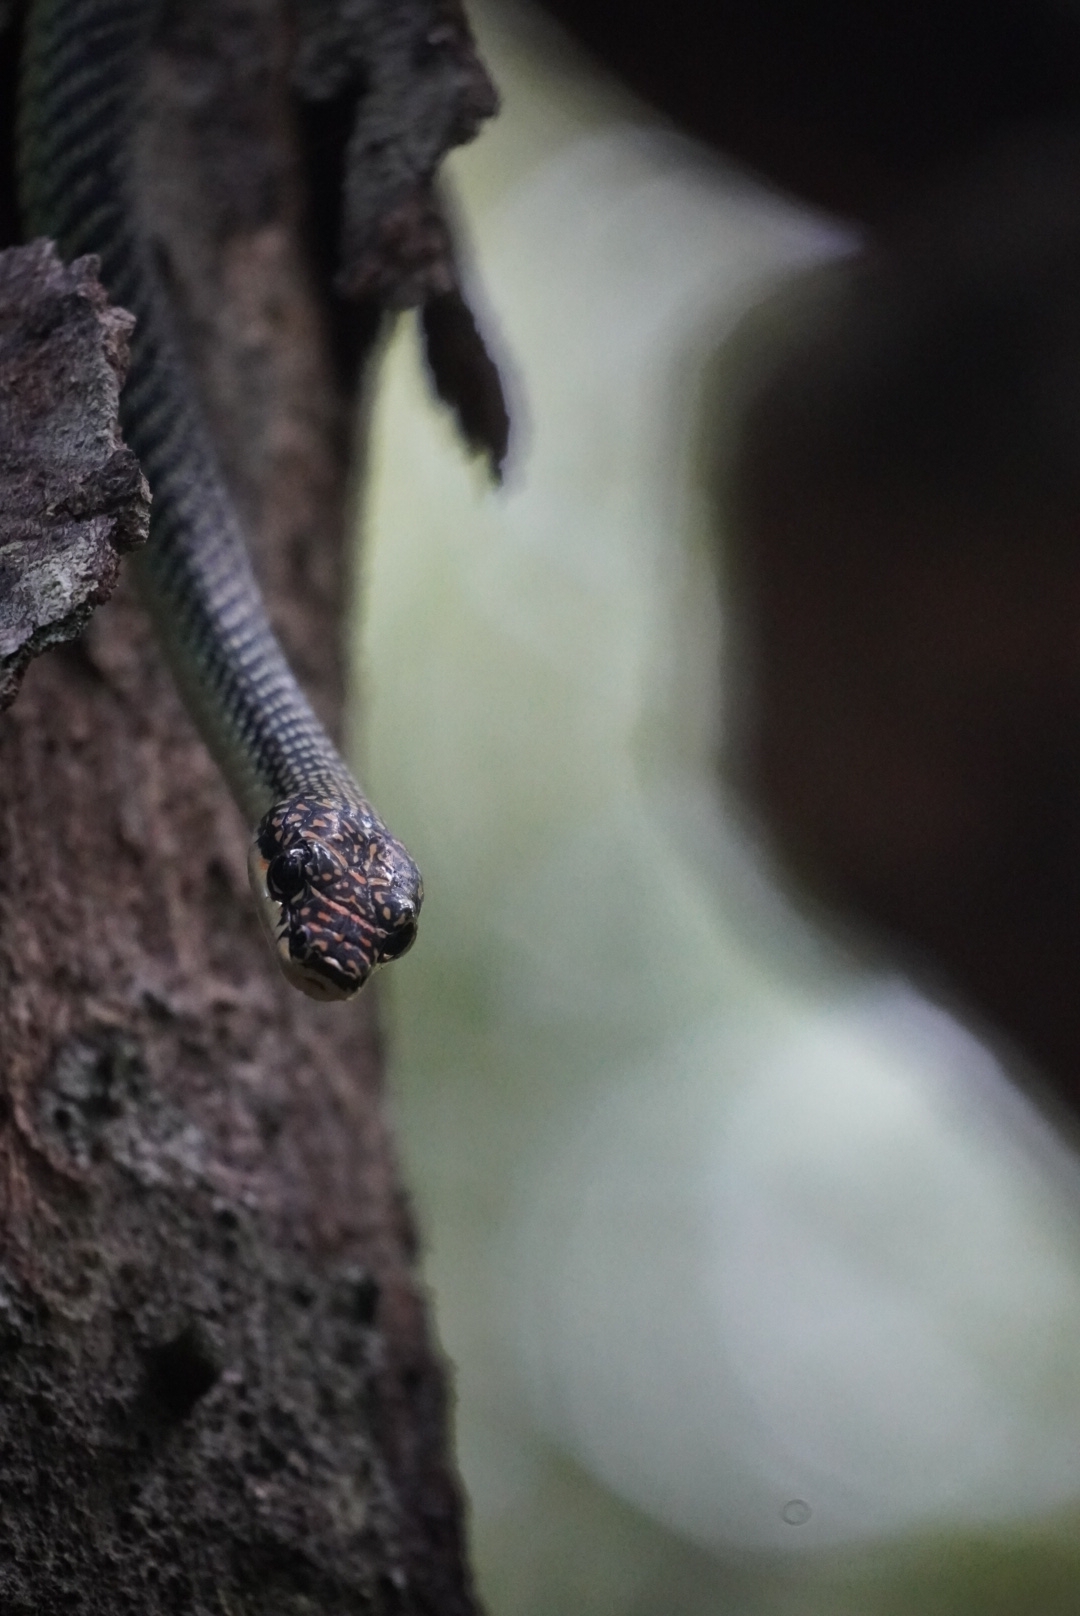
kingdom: Animalia
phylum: Chordata
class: Squamata
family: Colubridae
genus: Chrysopelea
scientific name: Chrysopelea paradisi
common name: Paradise tree snake
